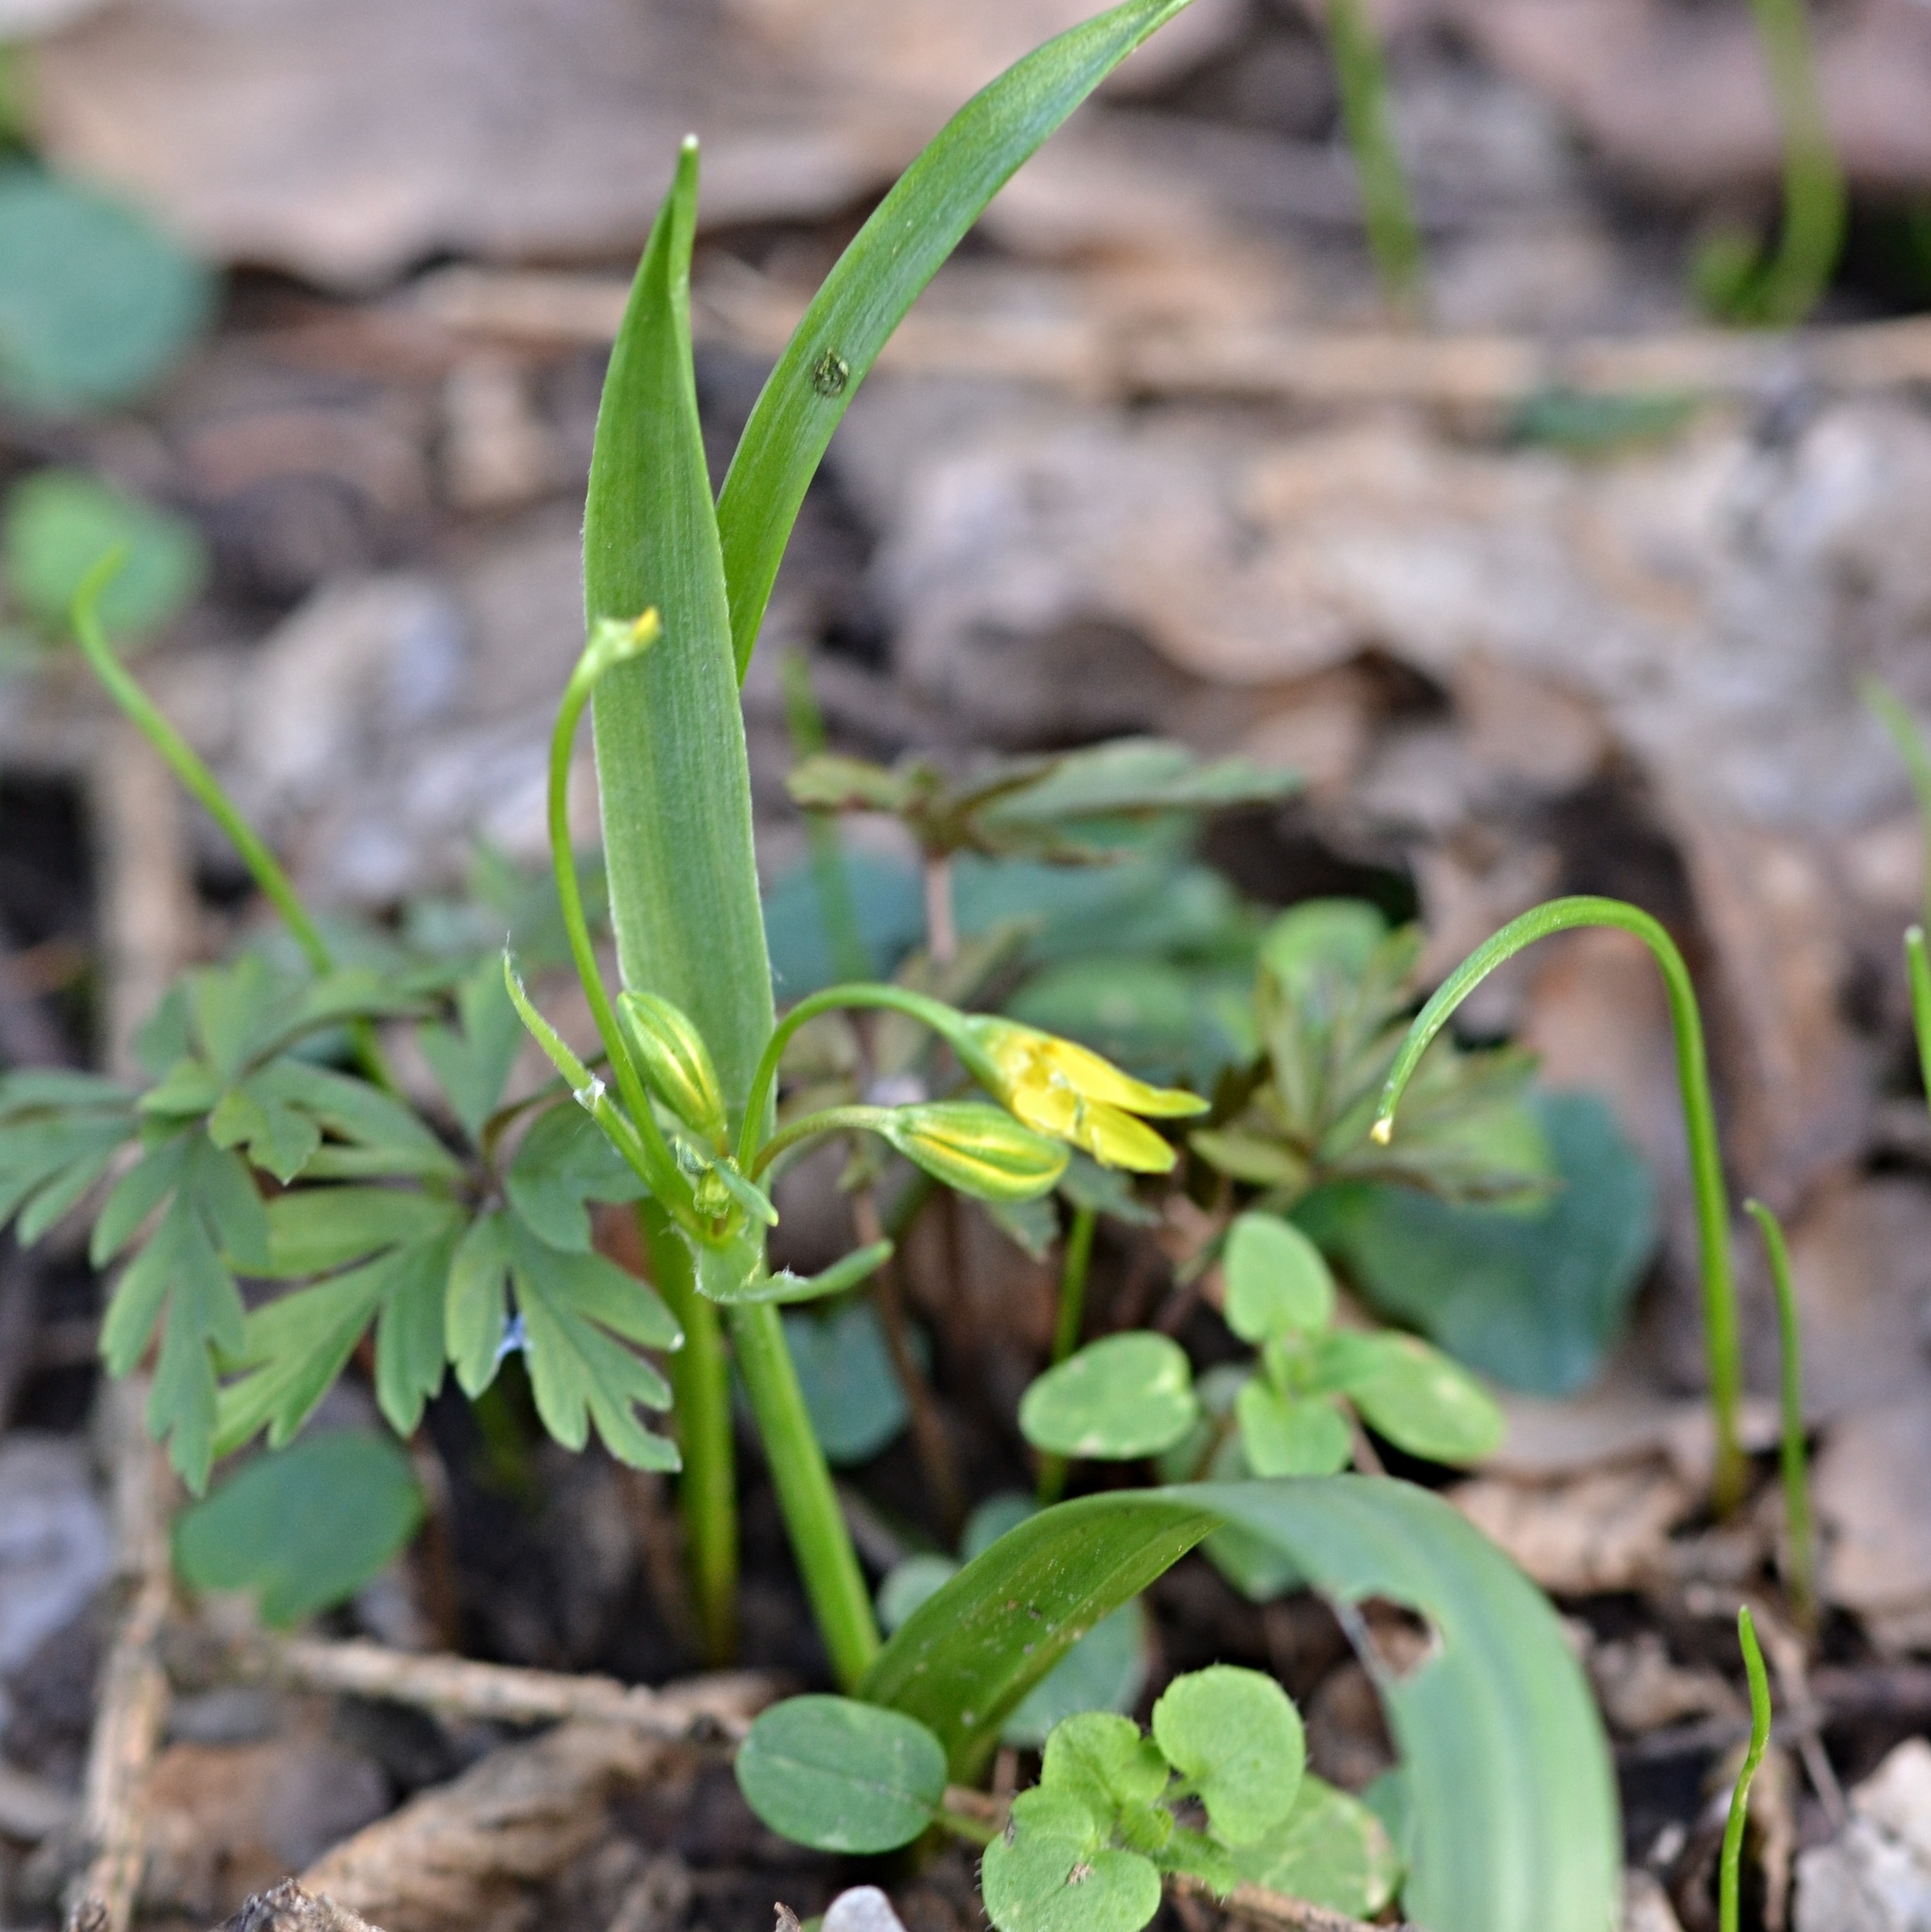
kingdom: Plantae
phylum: Tracheophyta
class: Liliopsida
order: Liliales
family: Liliaceae
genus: Gagea
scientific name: Gagea lutea
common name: Yellow star-of-bethlehem
